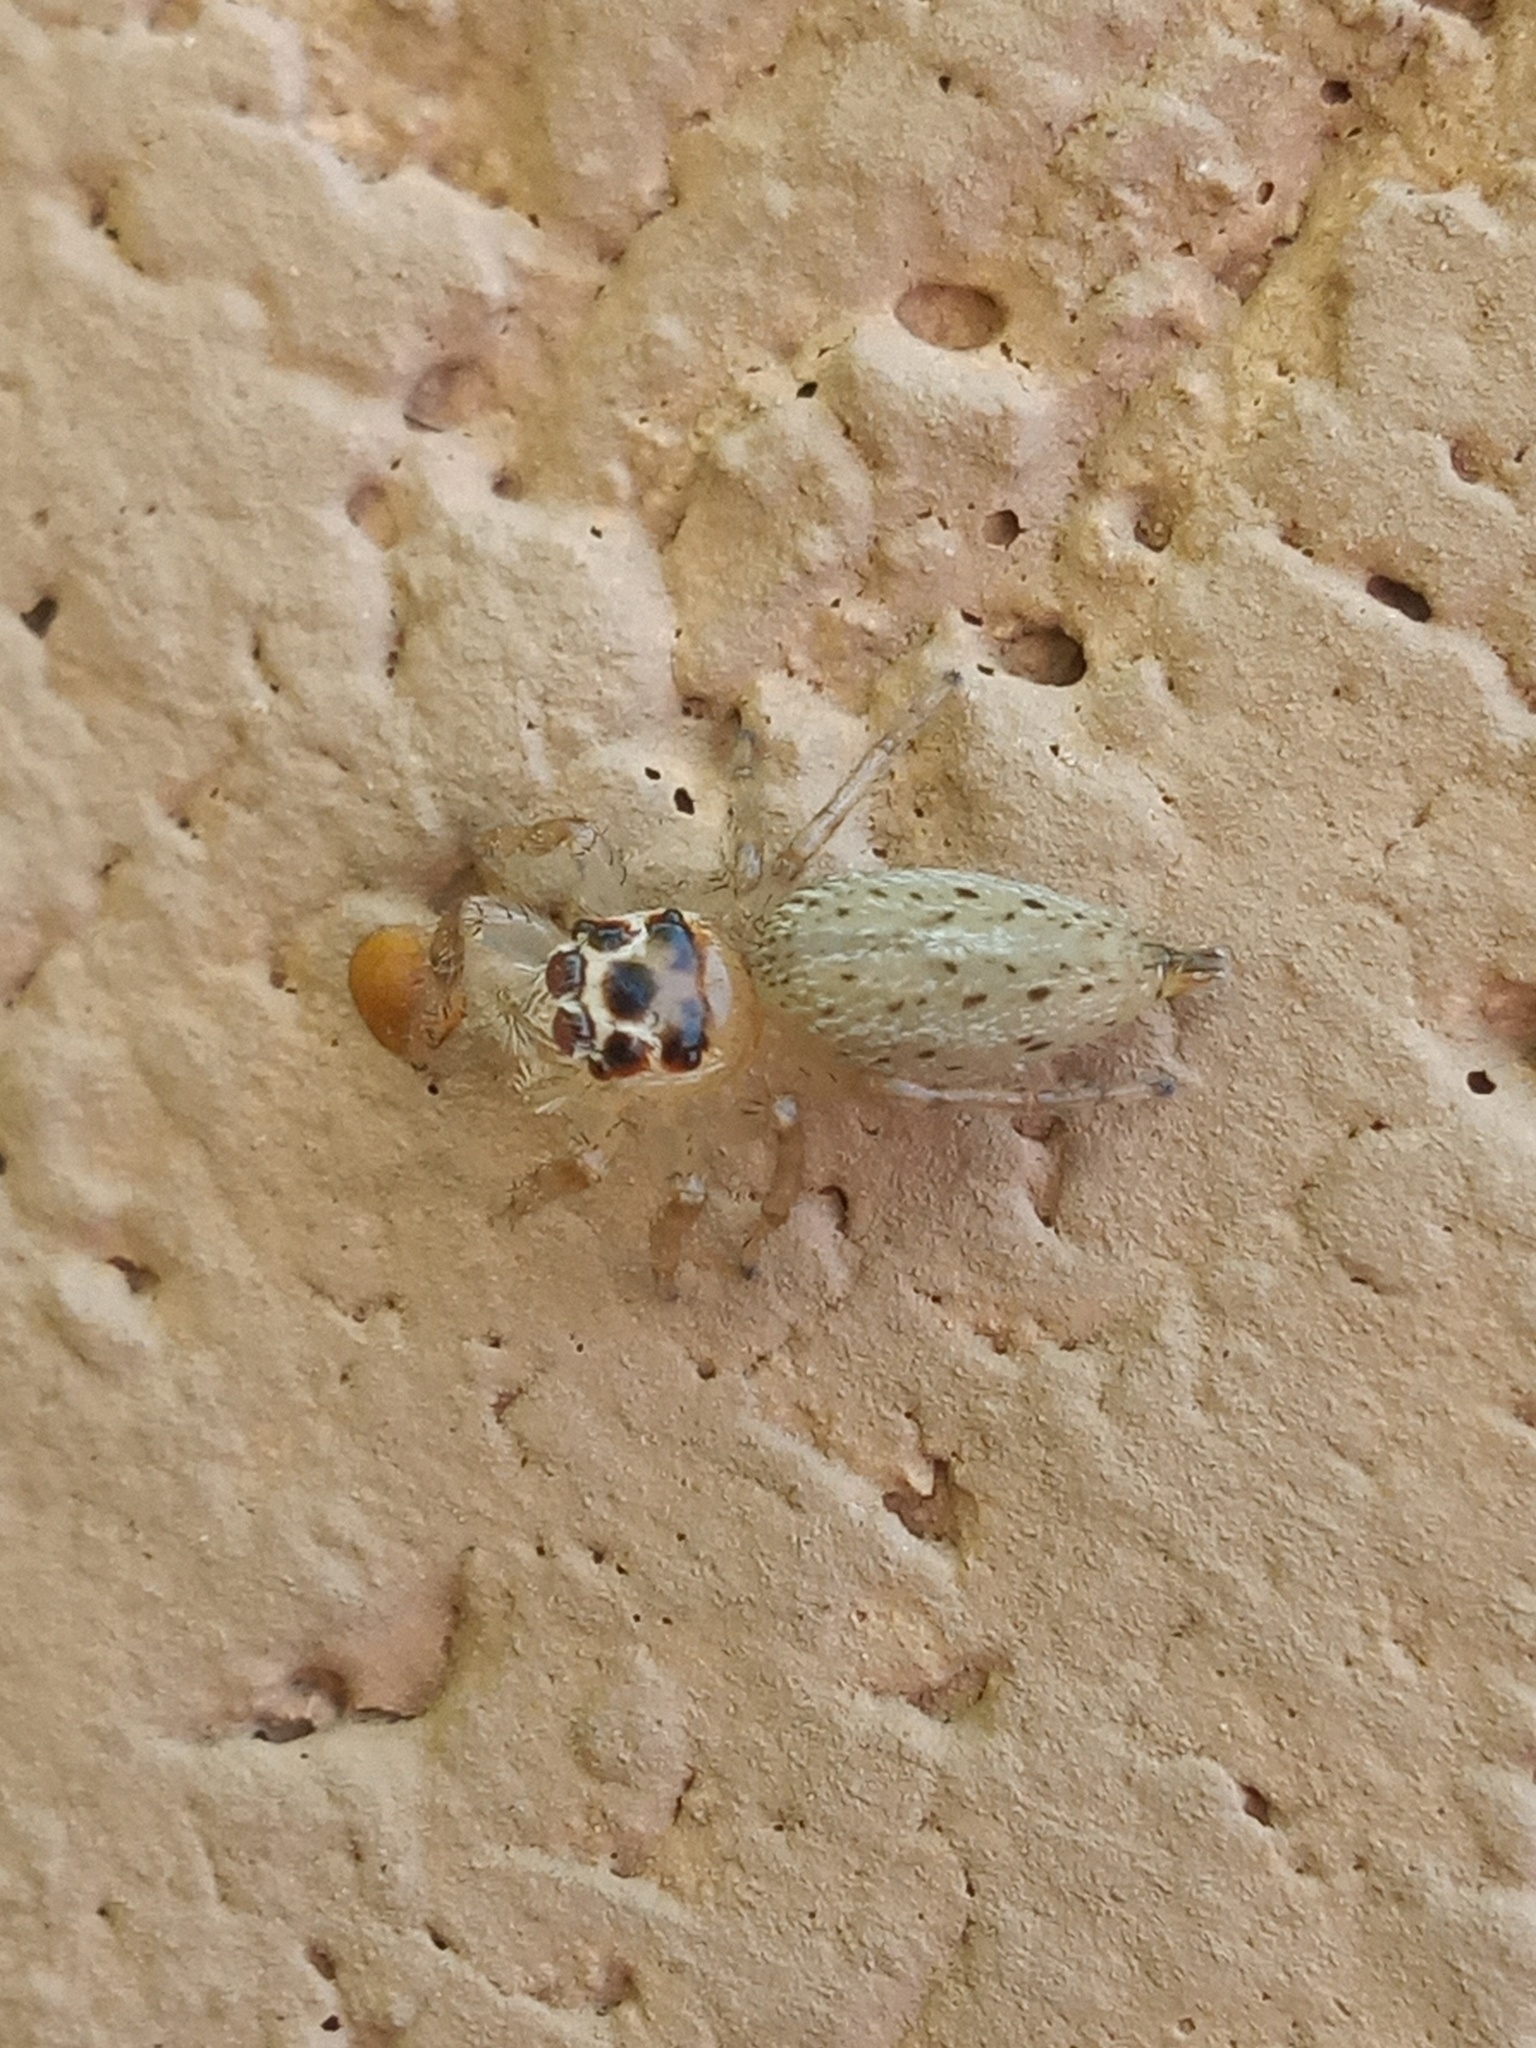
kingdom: Animalia
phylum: Arthropoda
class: Arachnida
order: Araneae
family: Salticidae
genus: Colonus
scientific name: Colonus hesperus
